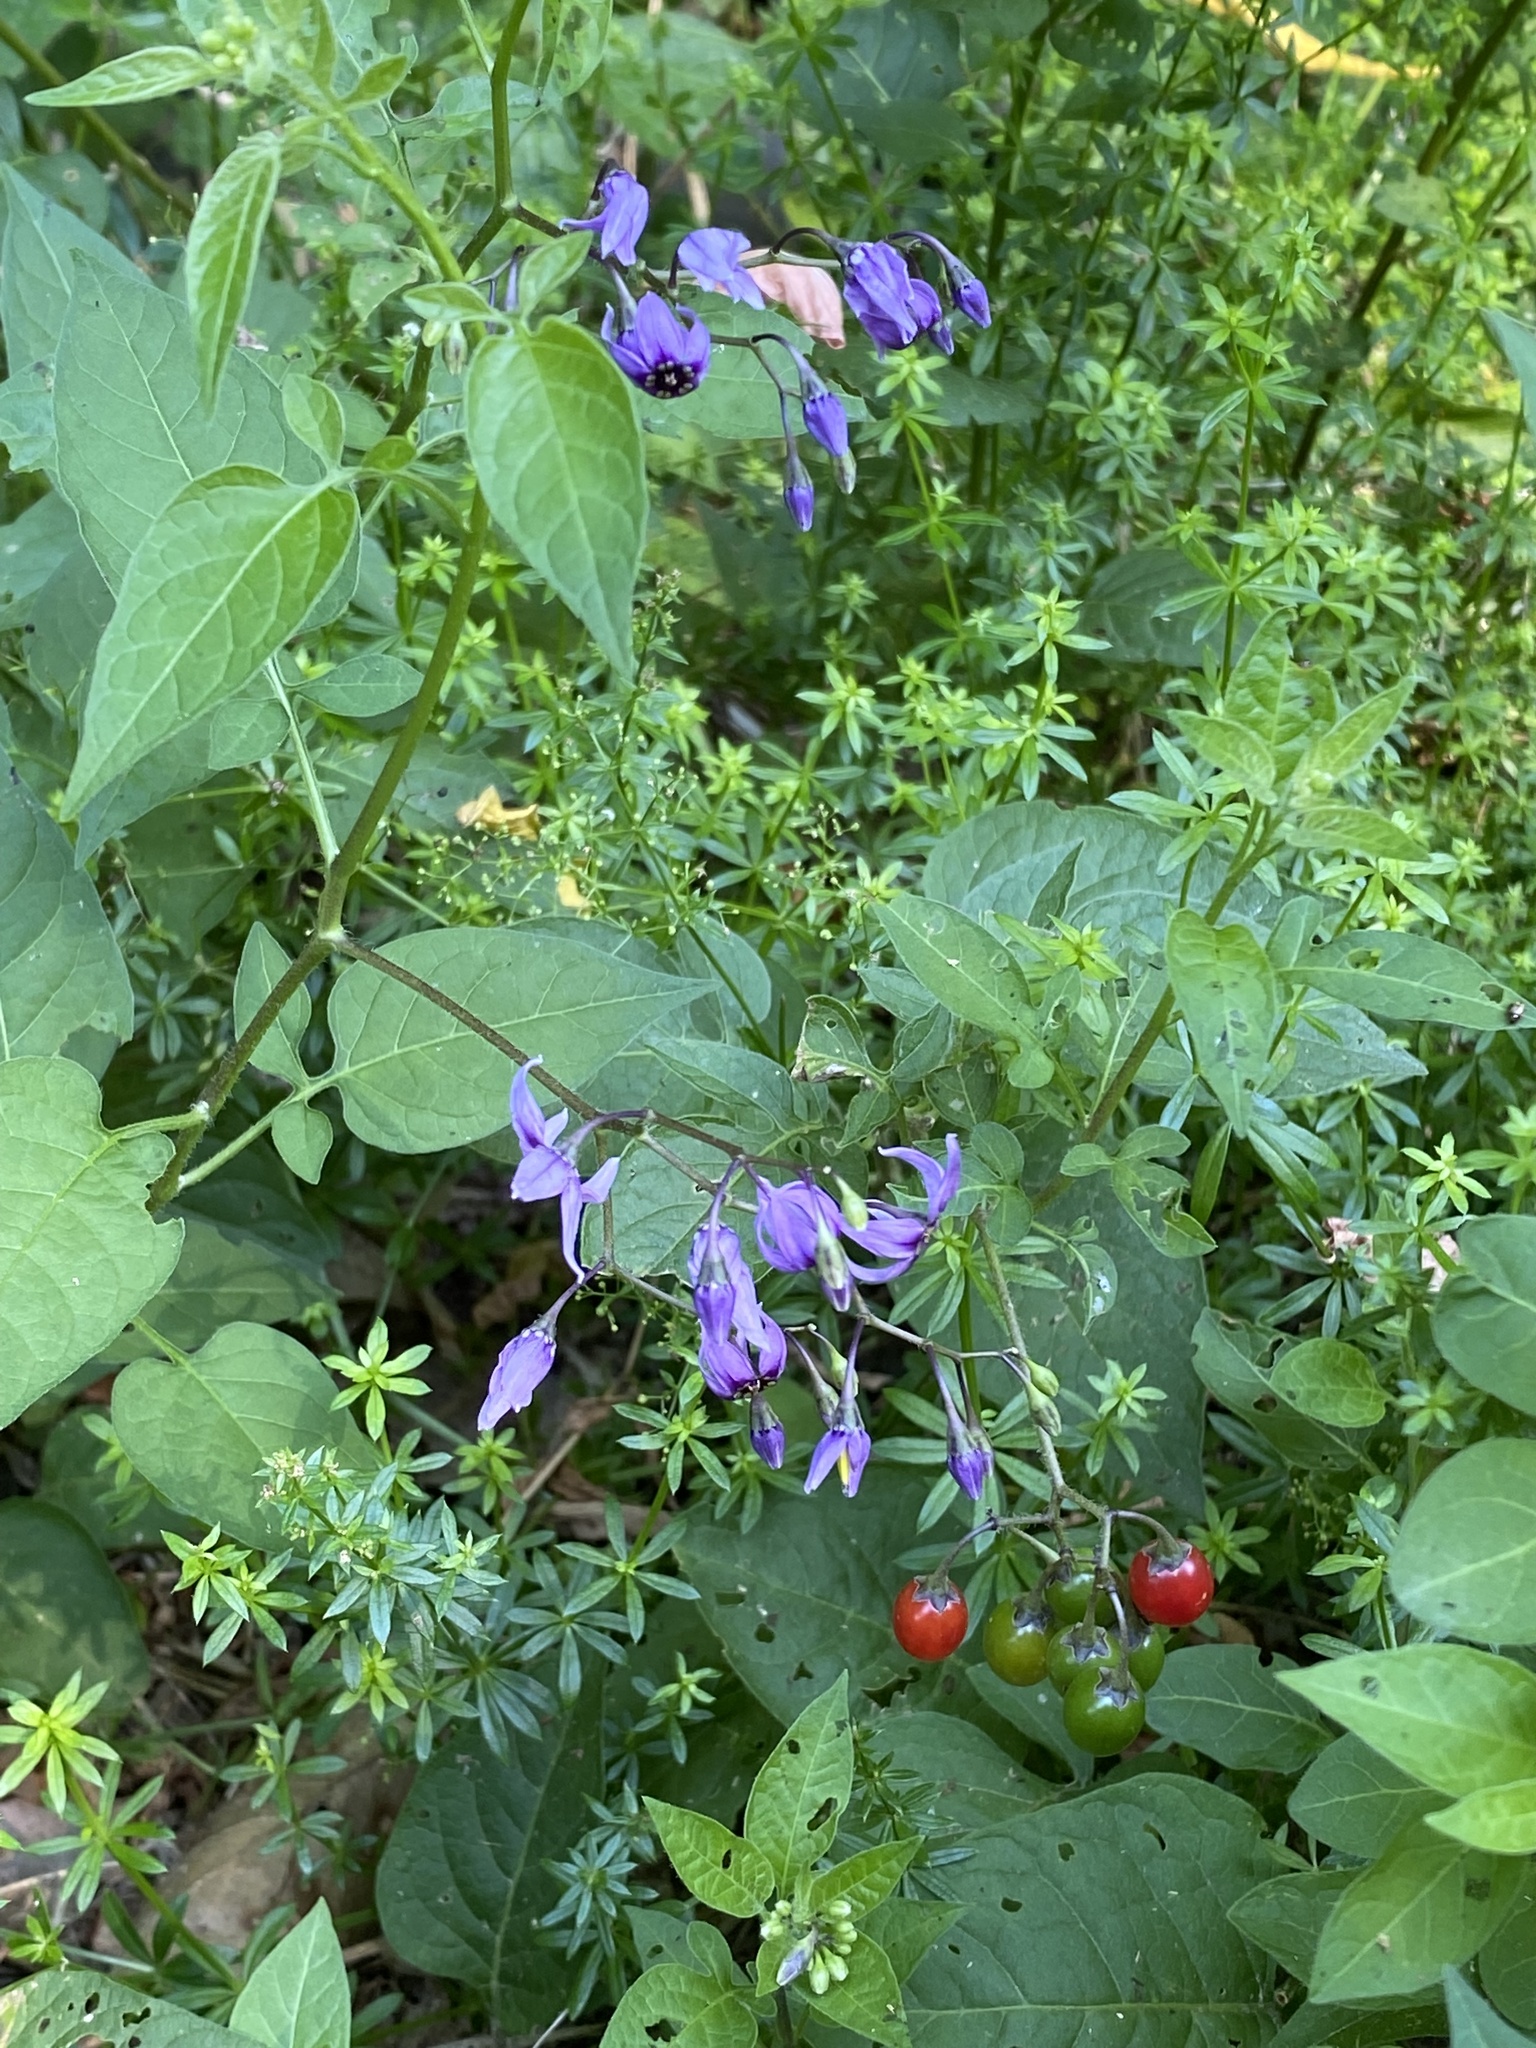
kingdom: Plantae
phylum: Tracheophyta
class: Magnoliopsida
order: Solanales
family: Solanaceae
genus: Solanum
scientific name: Solanum dulcamara
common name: Climbing nightshade
